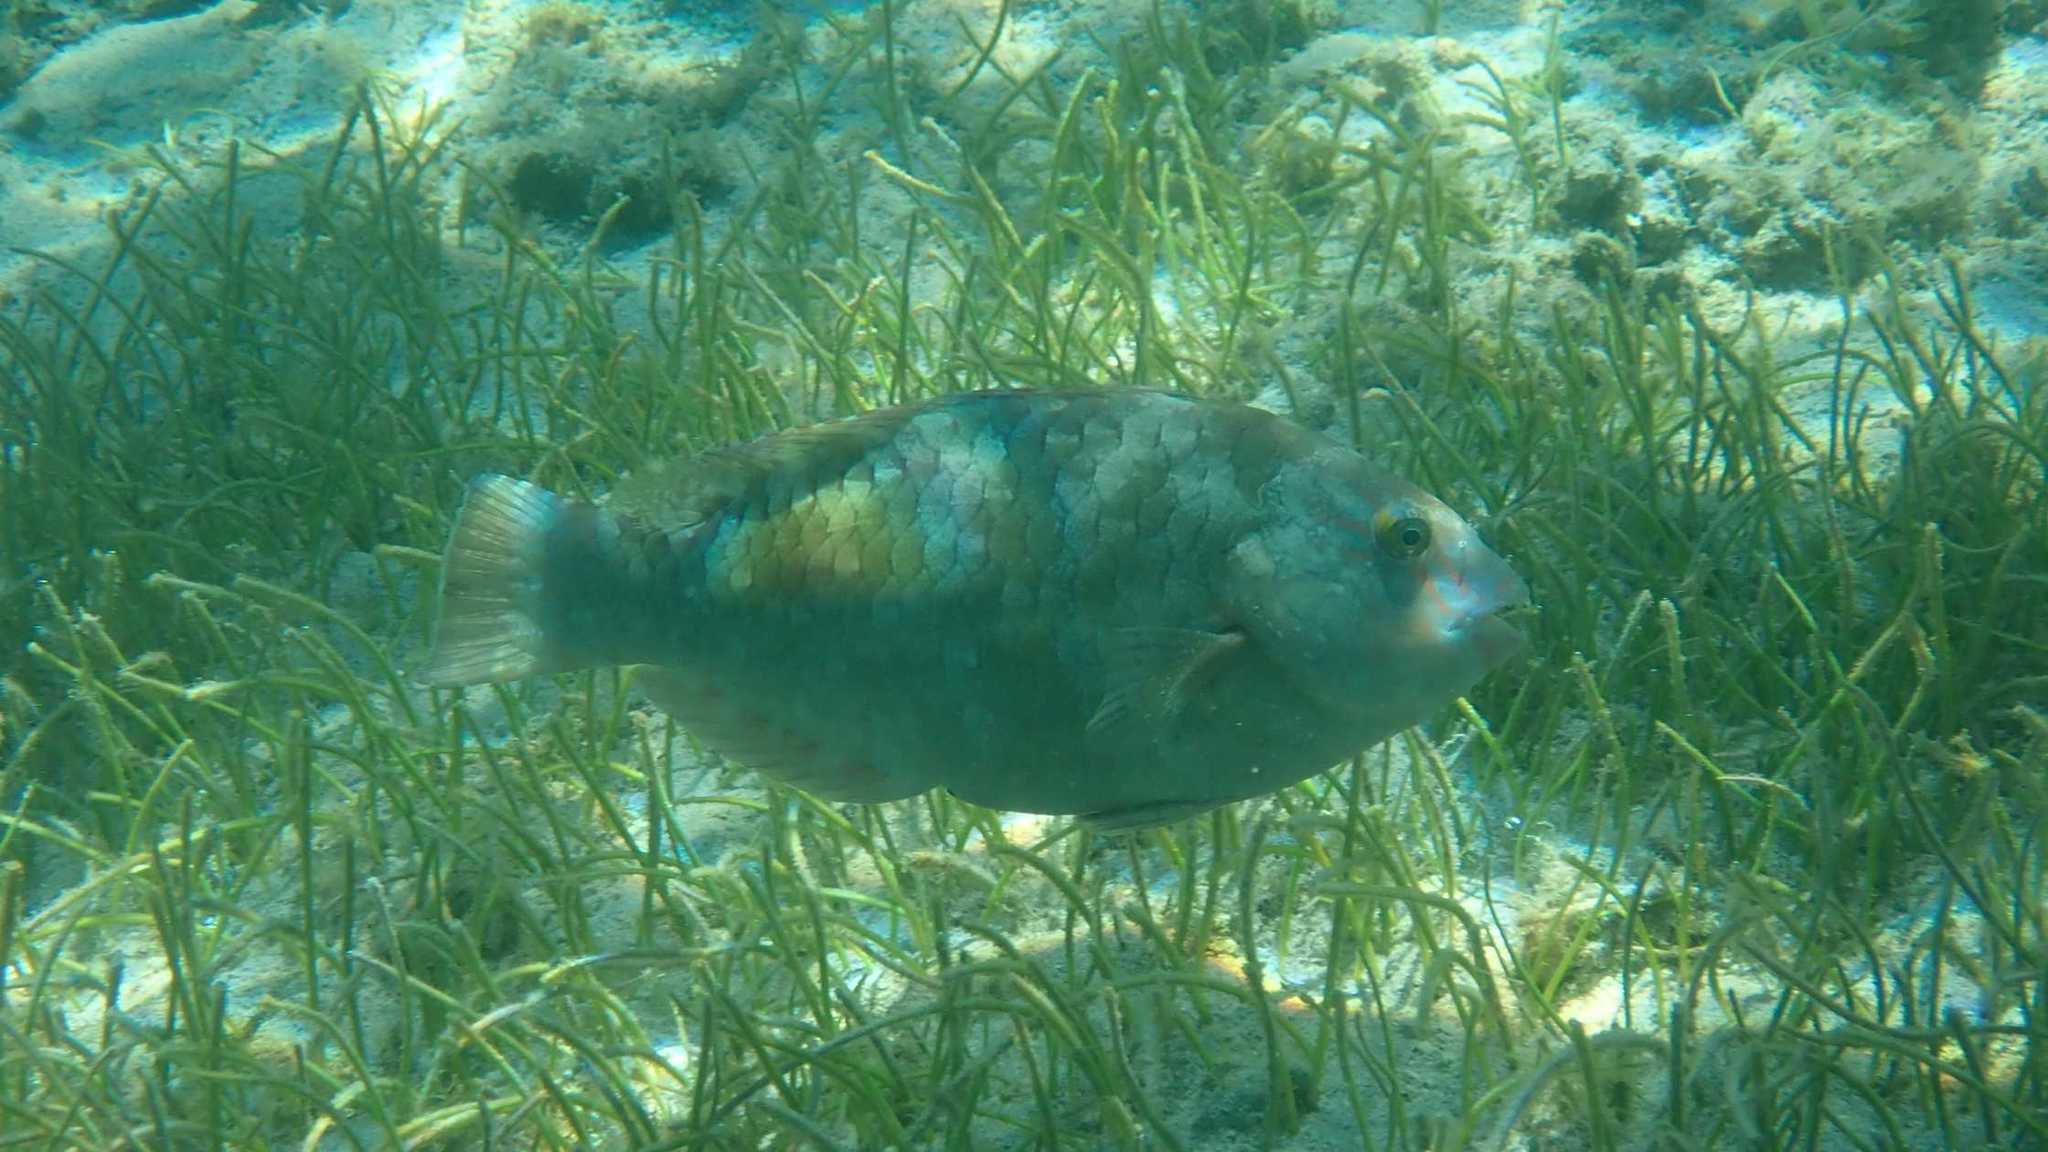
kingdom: Animalia
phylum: Chordata
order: Perciformes
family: Scaridae
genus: Calotomus
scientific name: Calotomus carolinus
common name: Bucktooth
